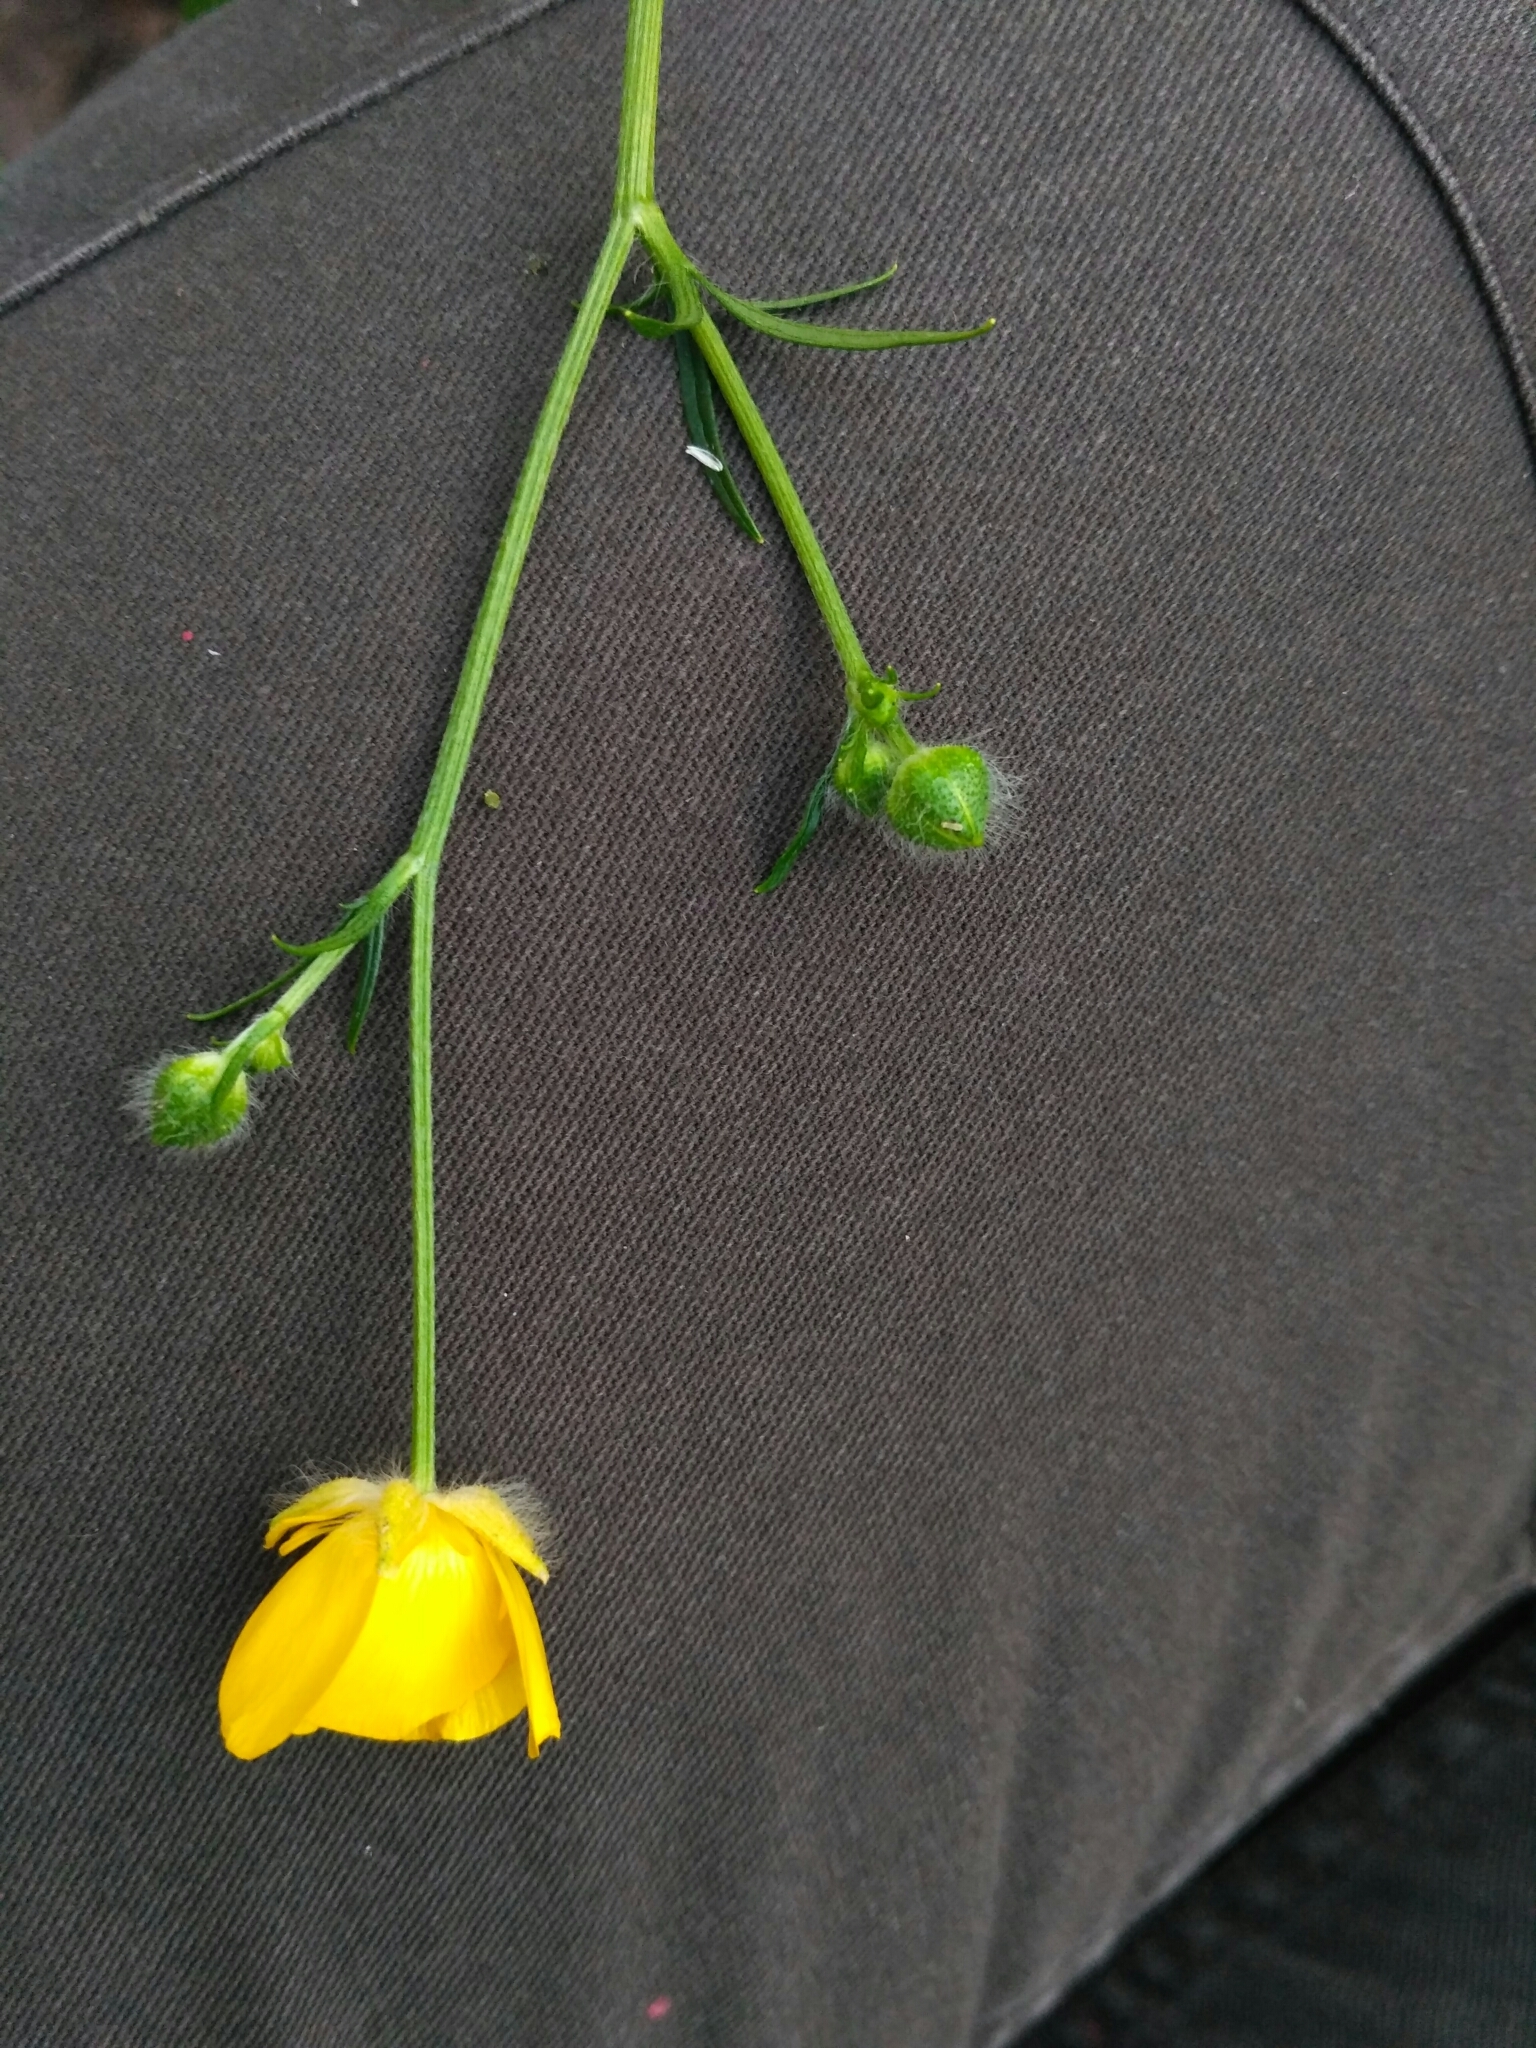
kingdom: Plantae
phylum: Tracheophyta
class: Magnoliopsida
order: Ranunculales
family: Ranunculaceae
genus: Ranunculus
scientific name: Ranunculus polyanthemos
